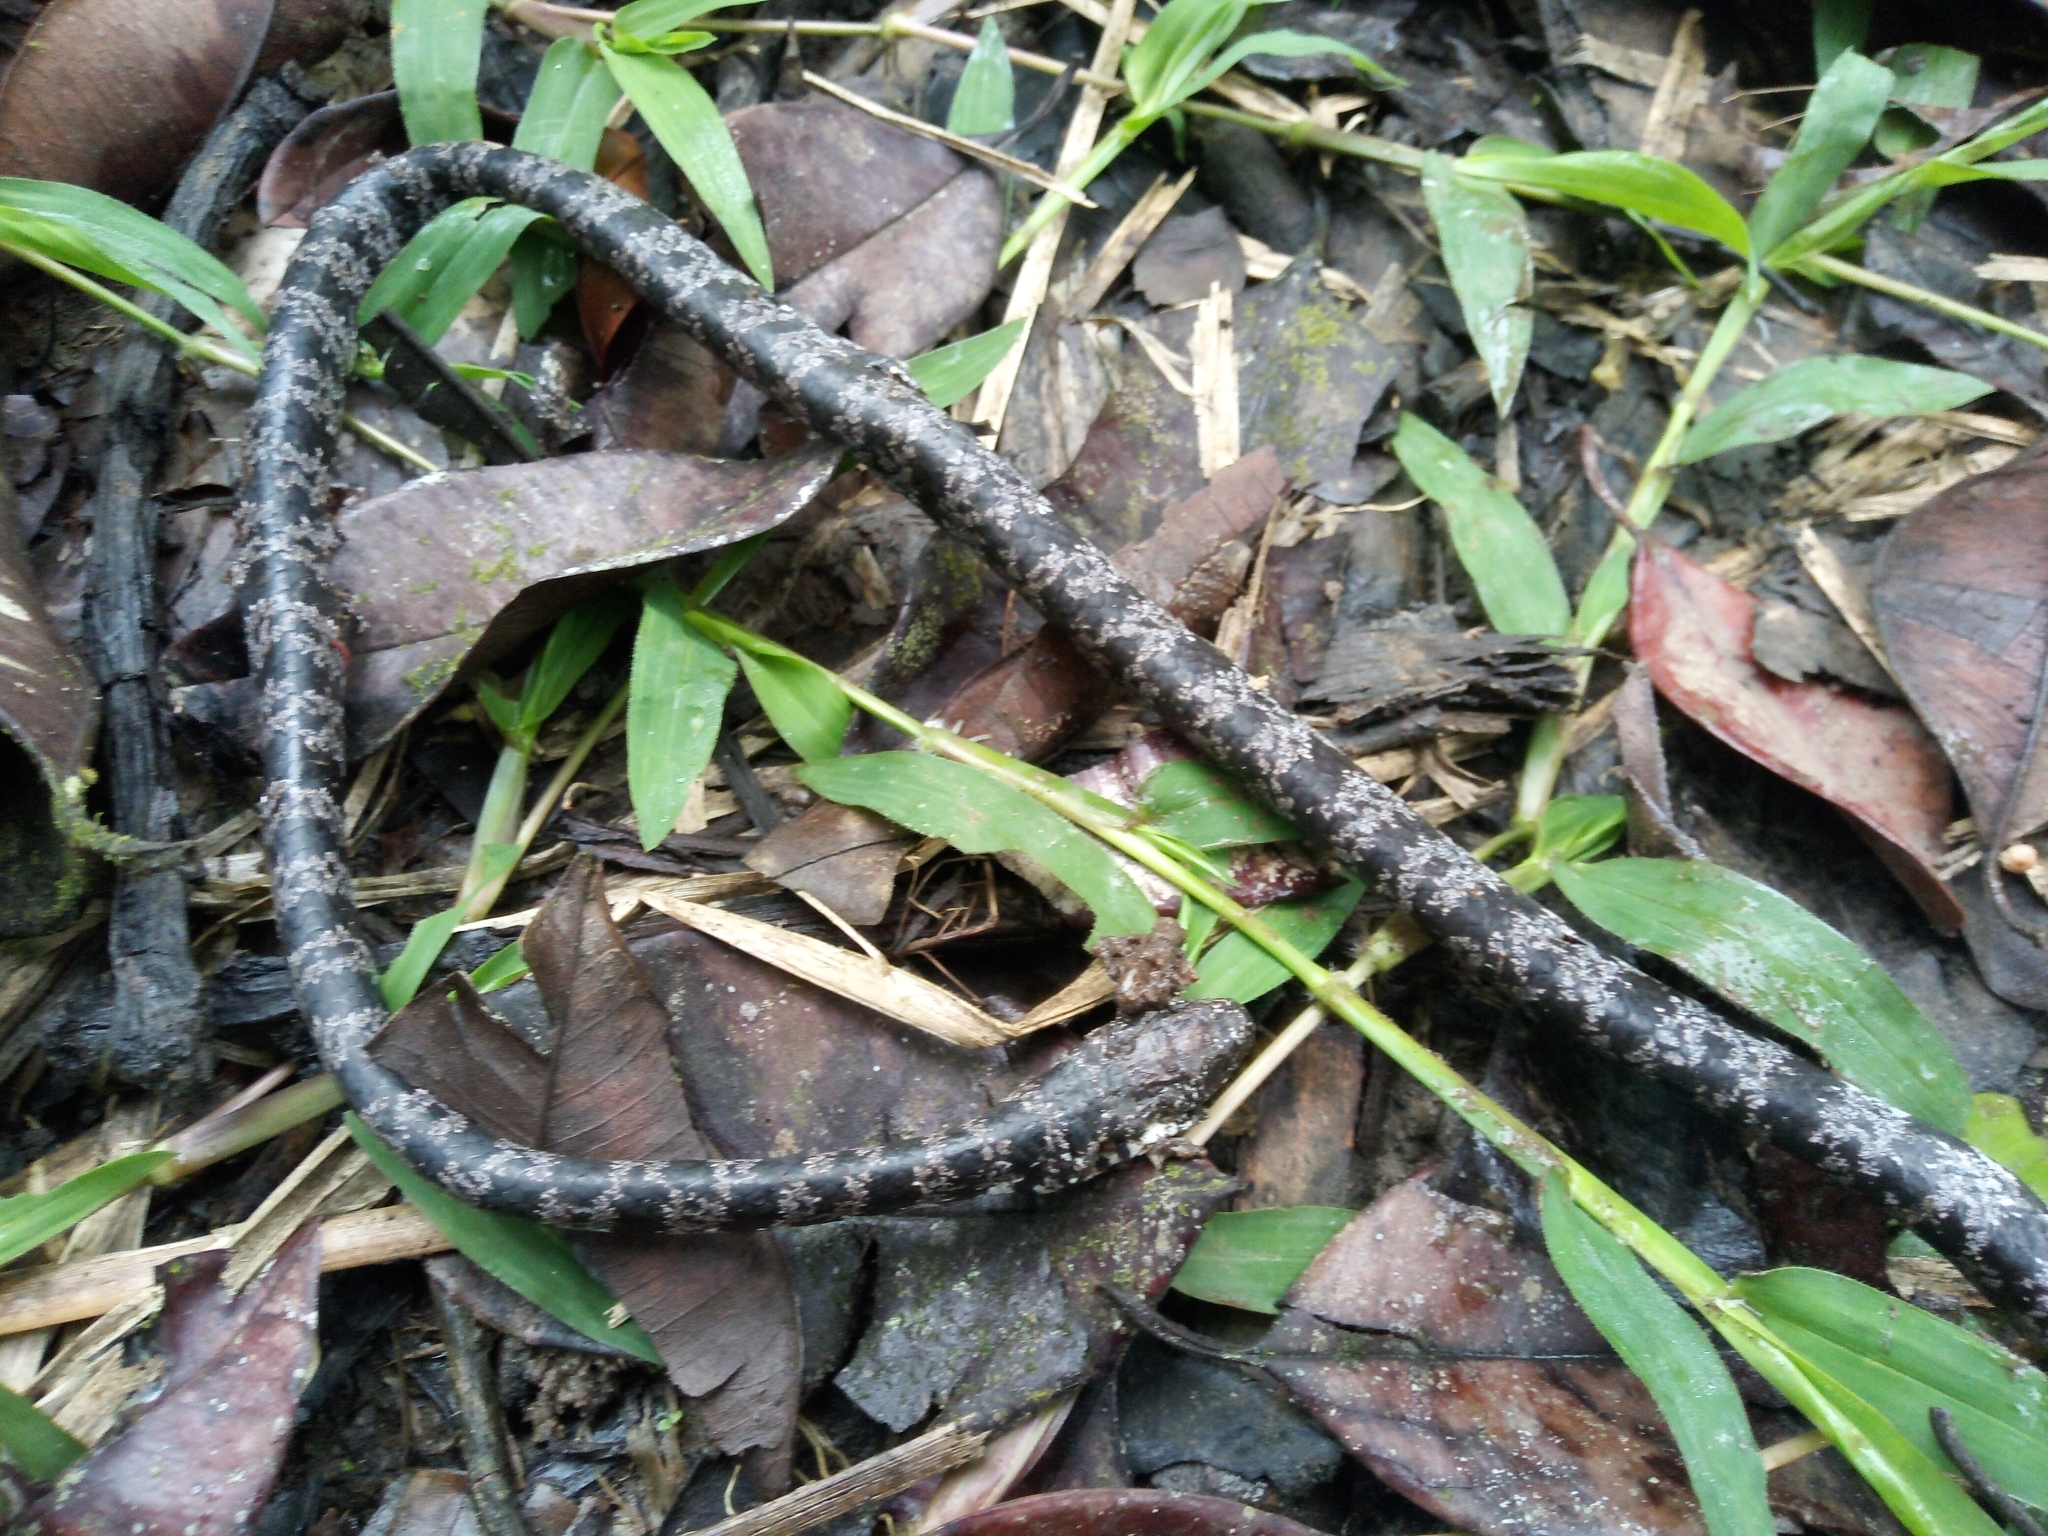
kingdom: Animalia
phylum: Chordata
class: Squamata
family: Colubridae
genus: Sibon
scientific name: Sibon nebulatus
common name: Cloudy snail-eating snake
